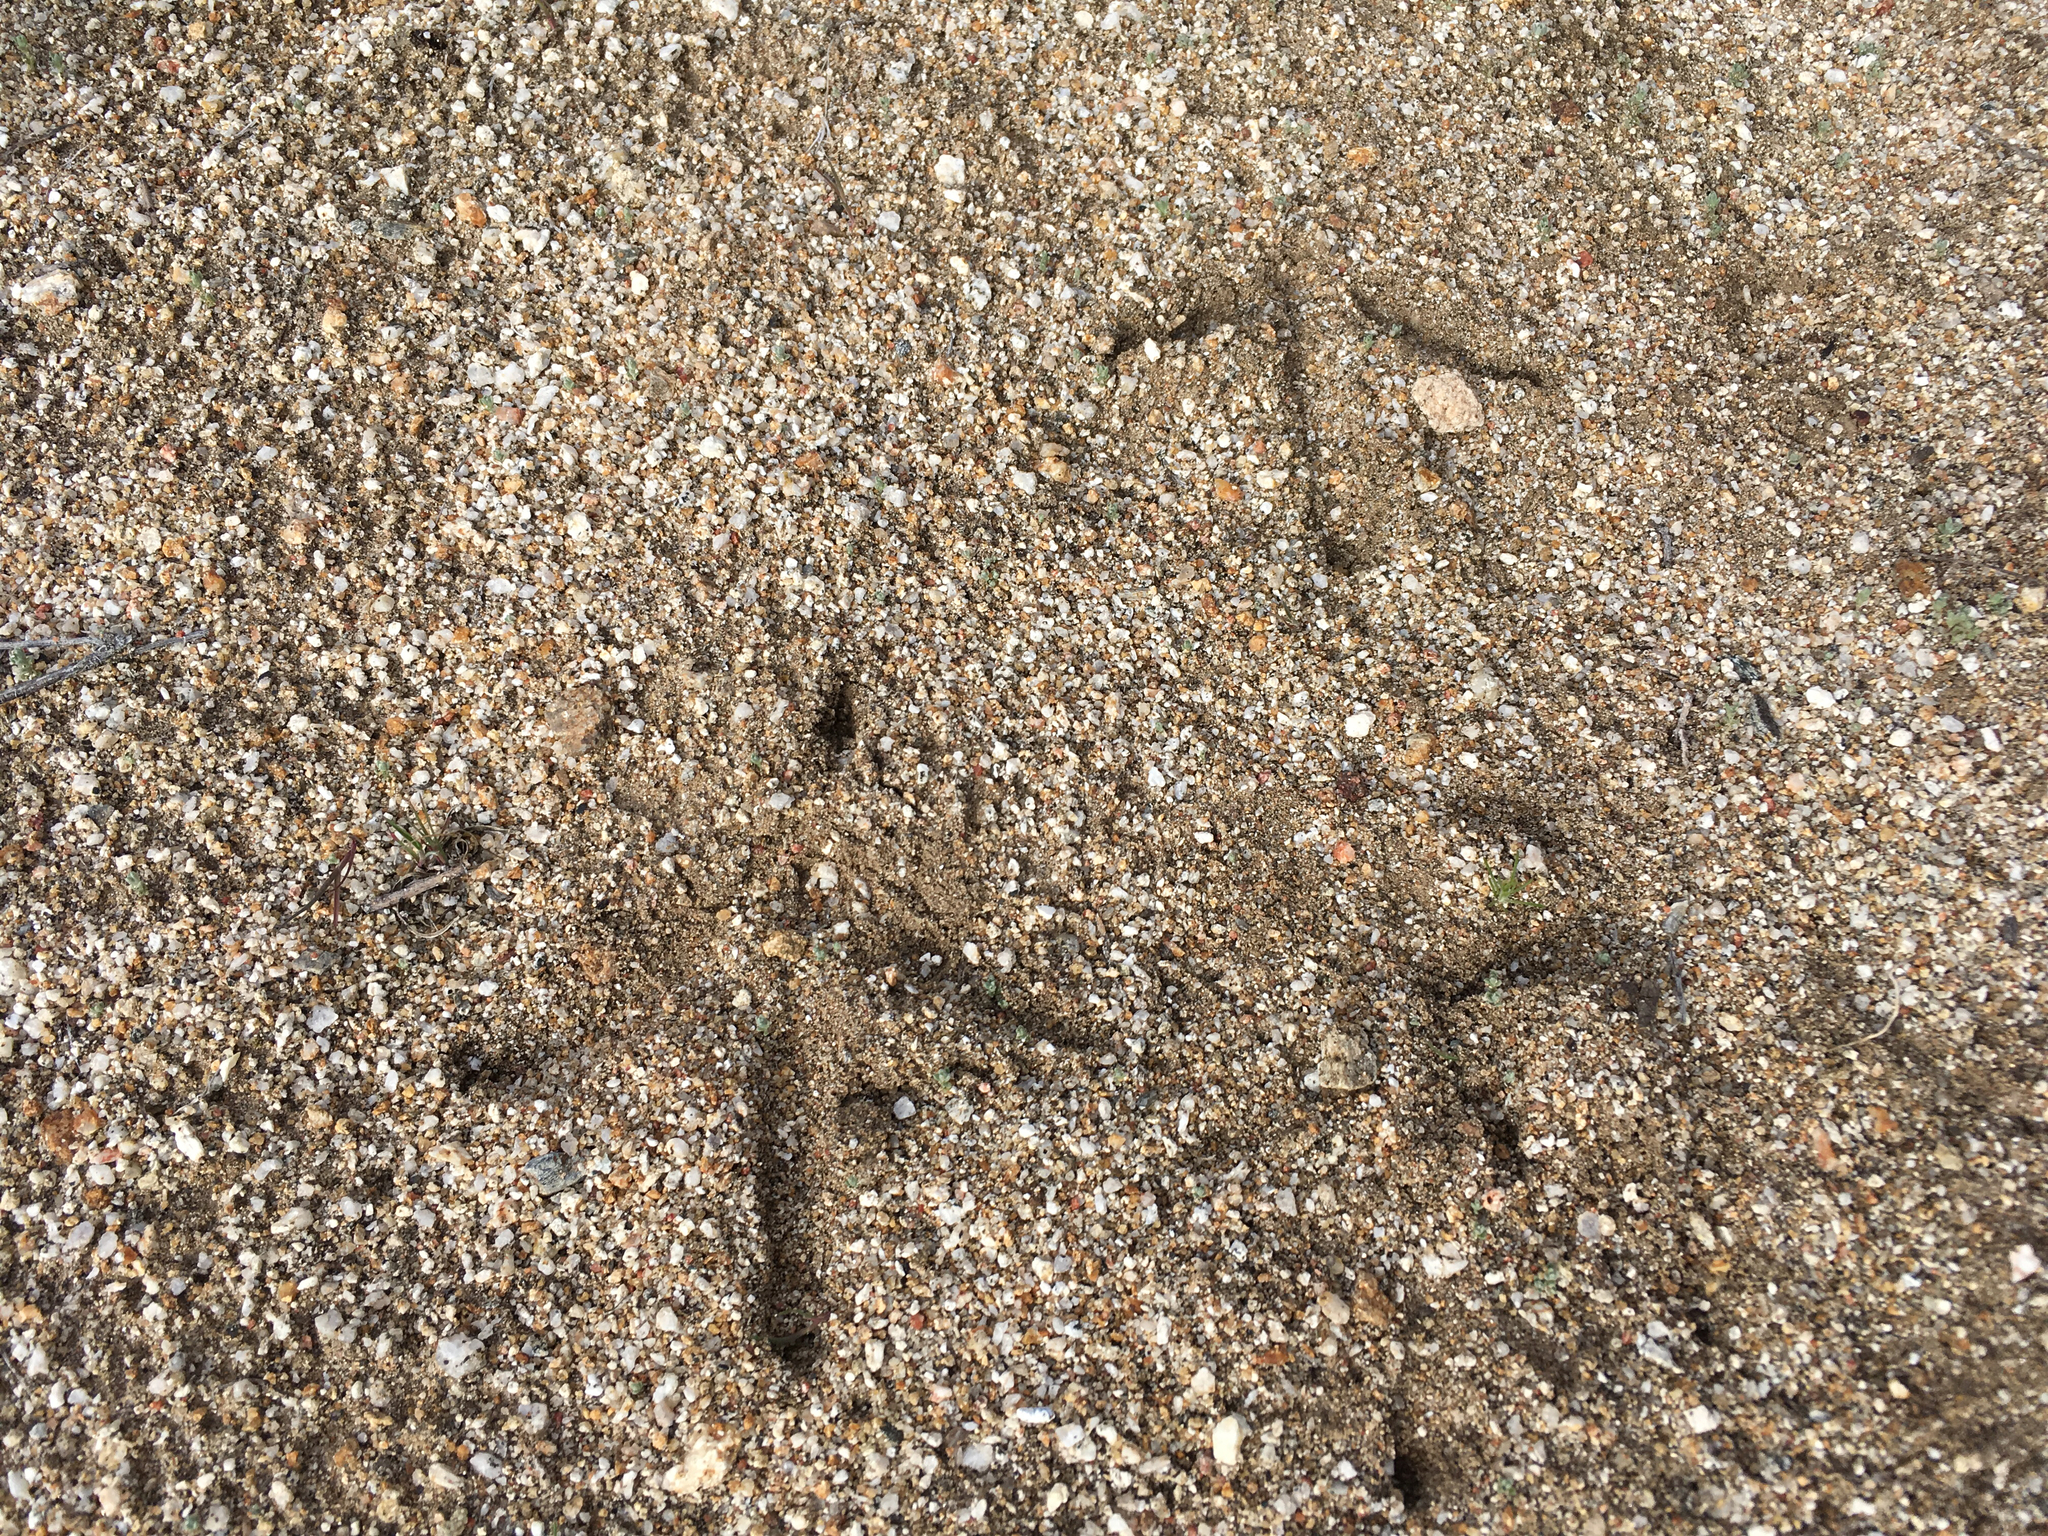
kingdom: Animalia
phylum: Chordata
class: Aves
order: Galliformes
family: Phasianidae
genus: Meleagris
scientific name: Meleagris gallopavo
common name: Wild turkey
